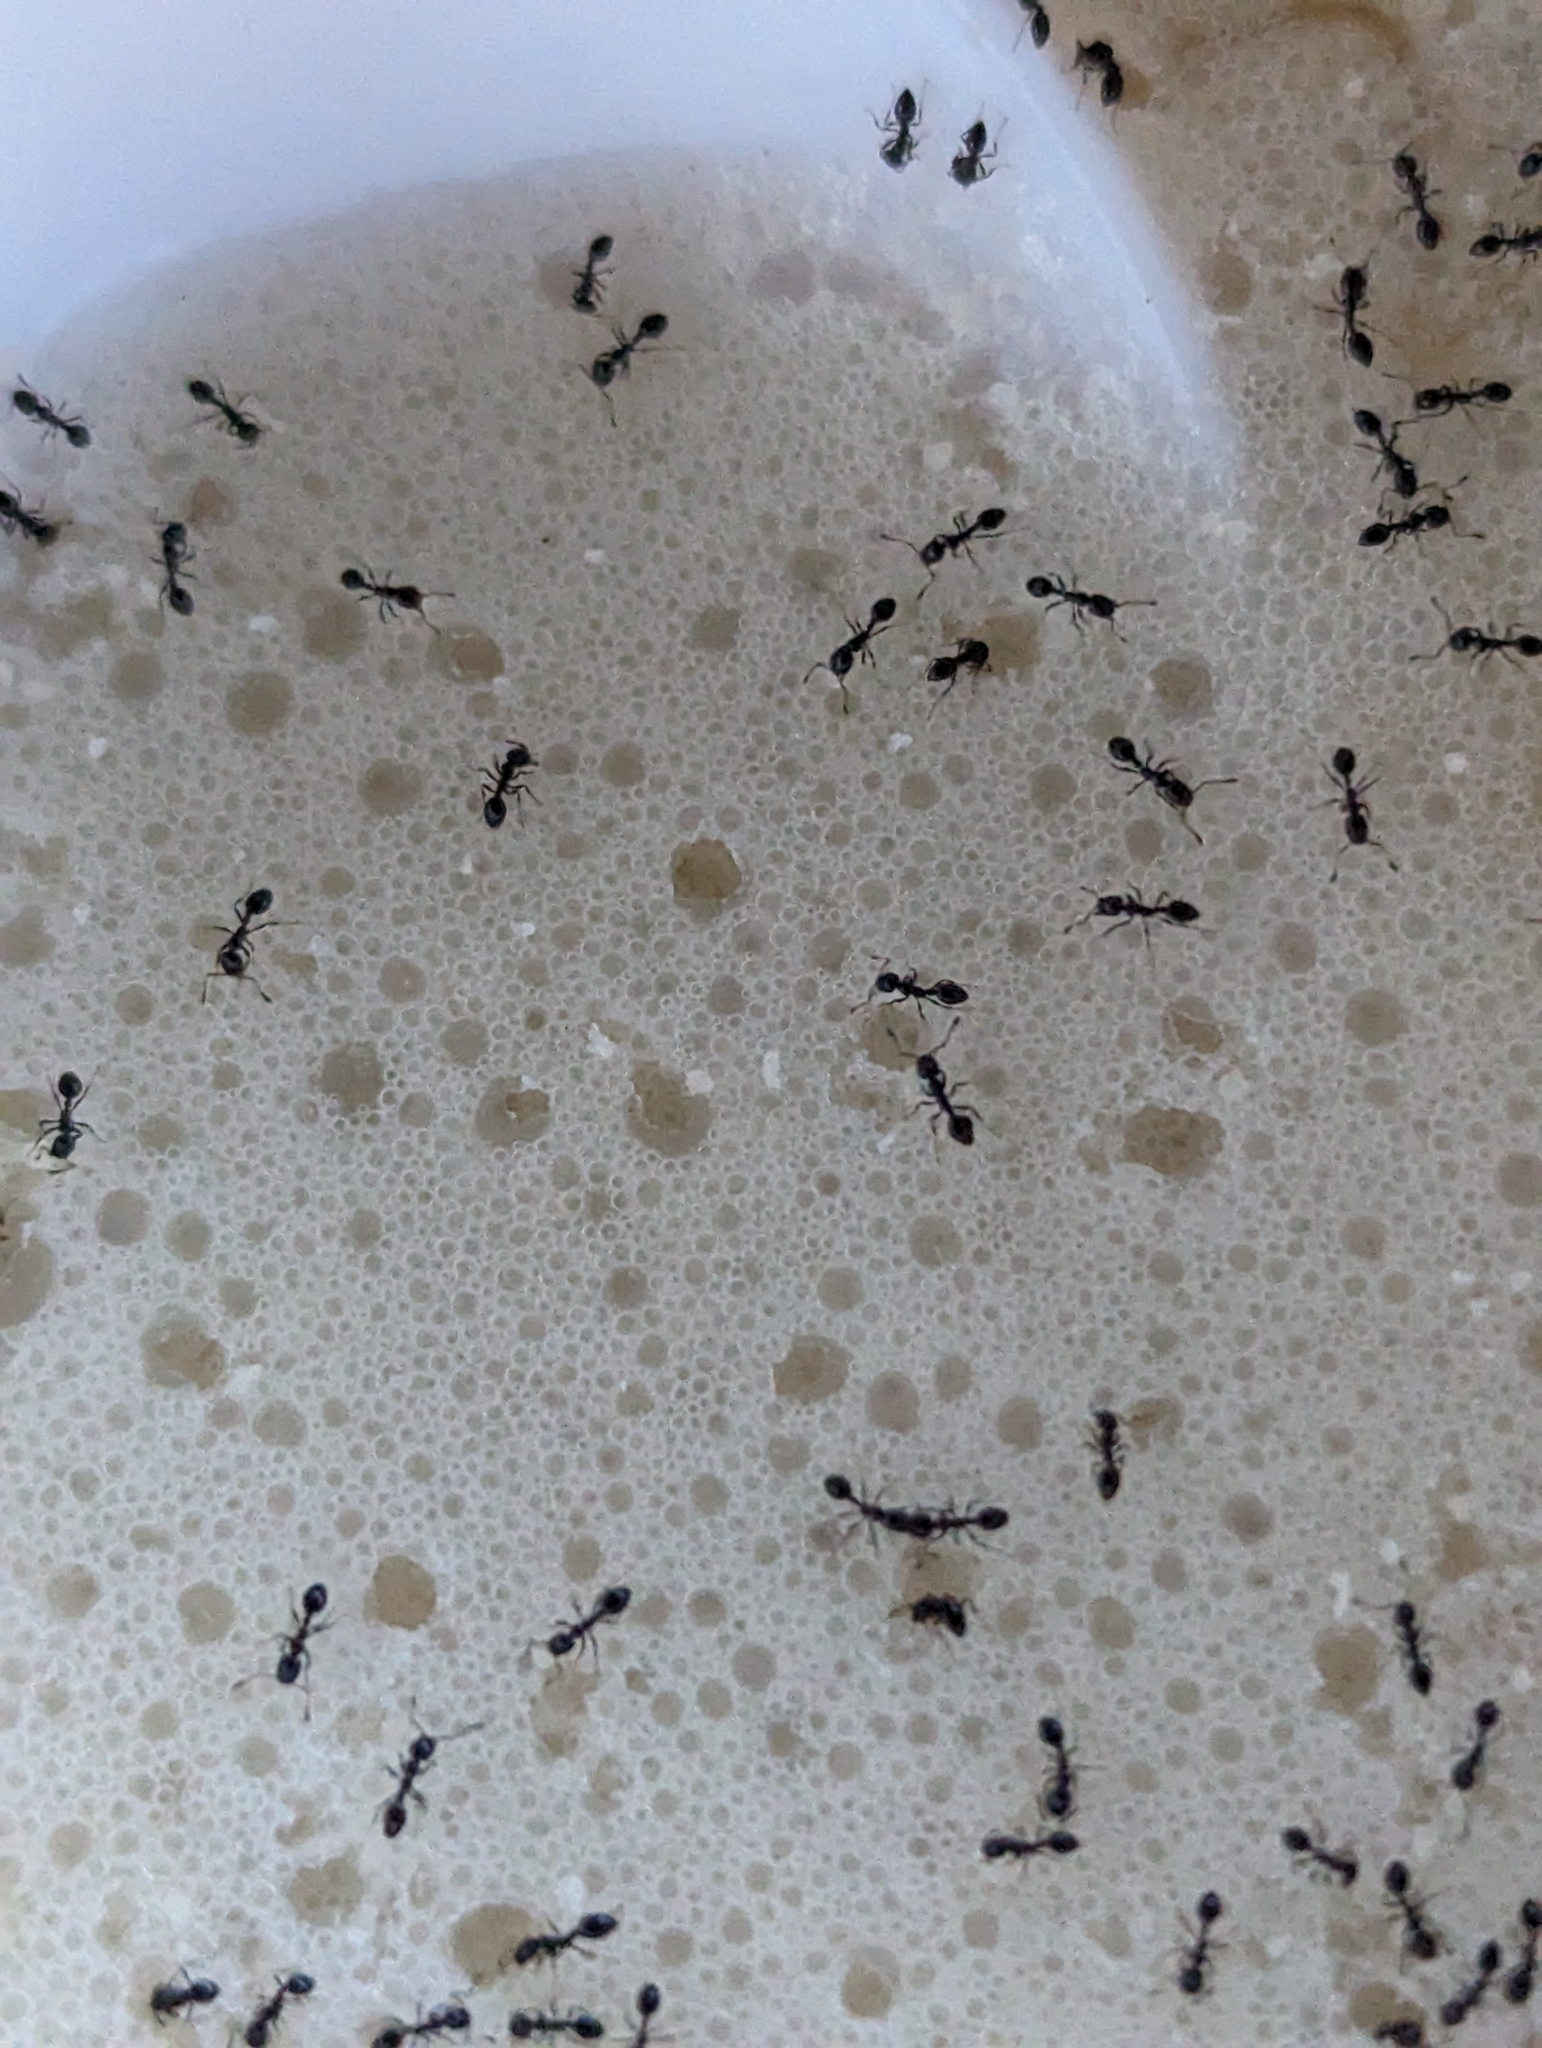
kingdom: Animalia
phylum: Arthropoda
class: Insecta
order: Hymenoptera
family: Formicidae
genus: Monomorium
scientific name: Monomorium ergatogyna
